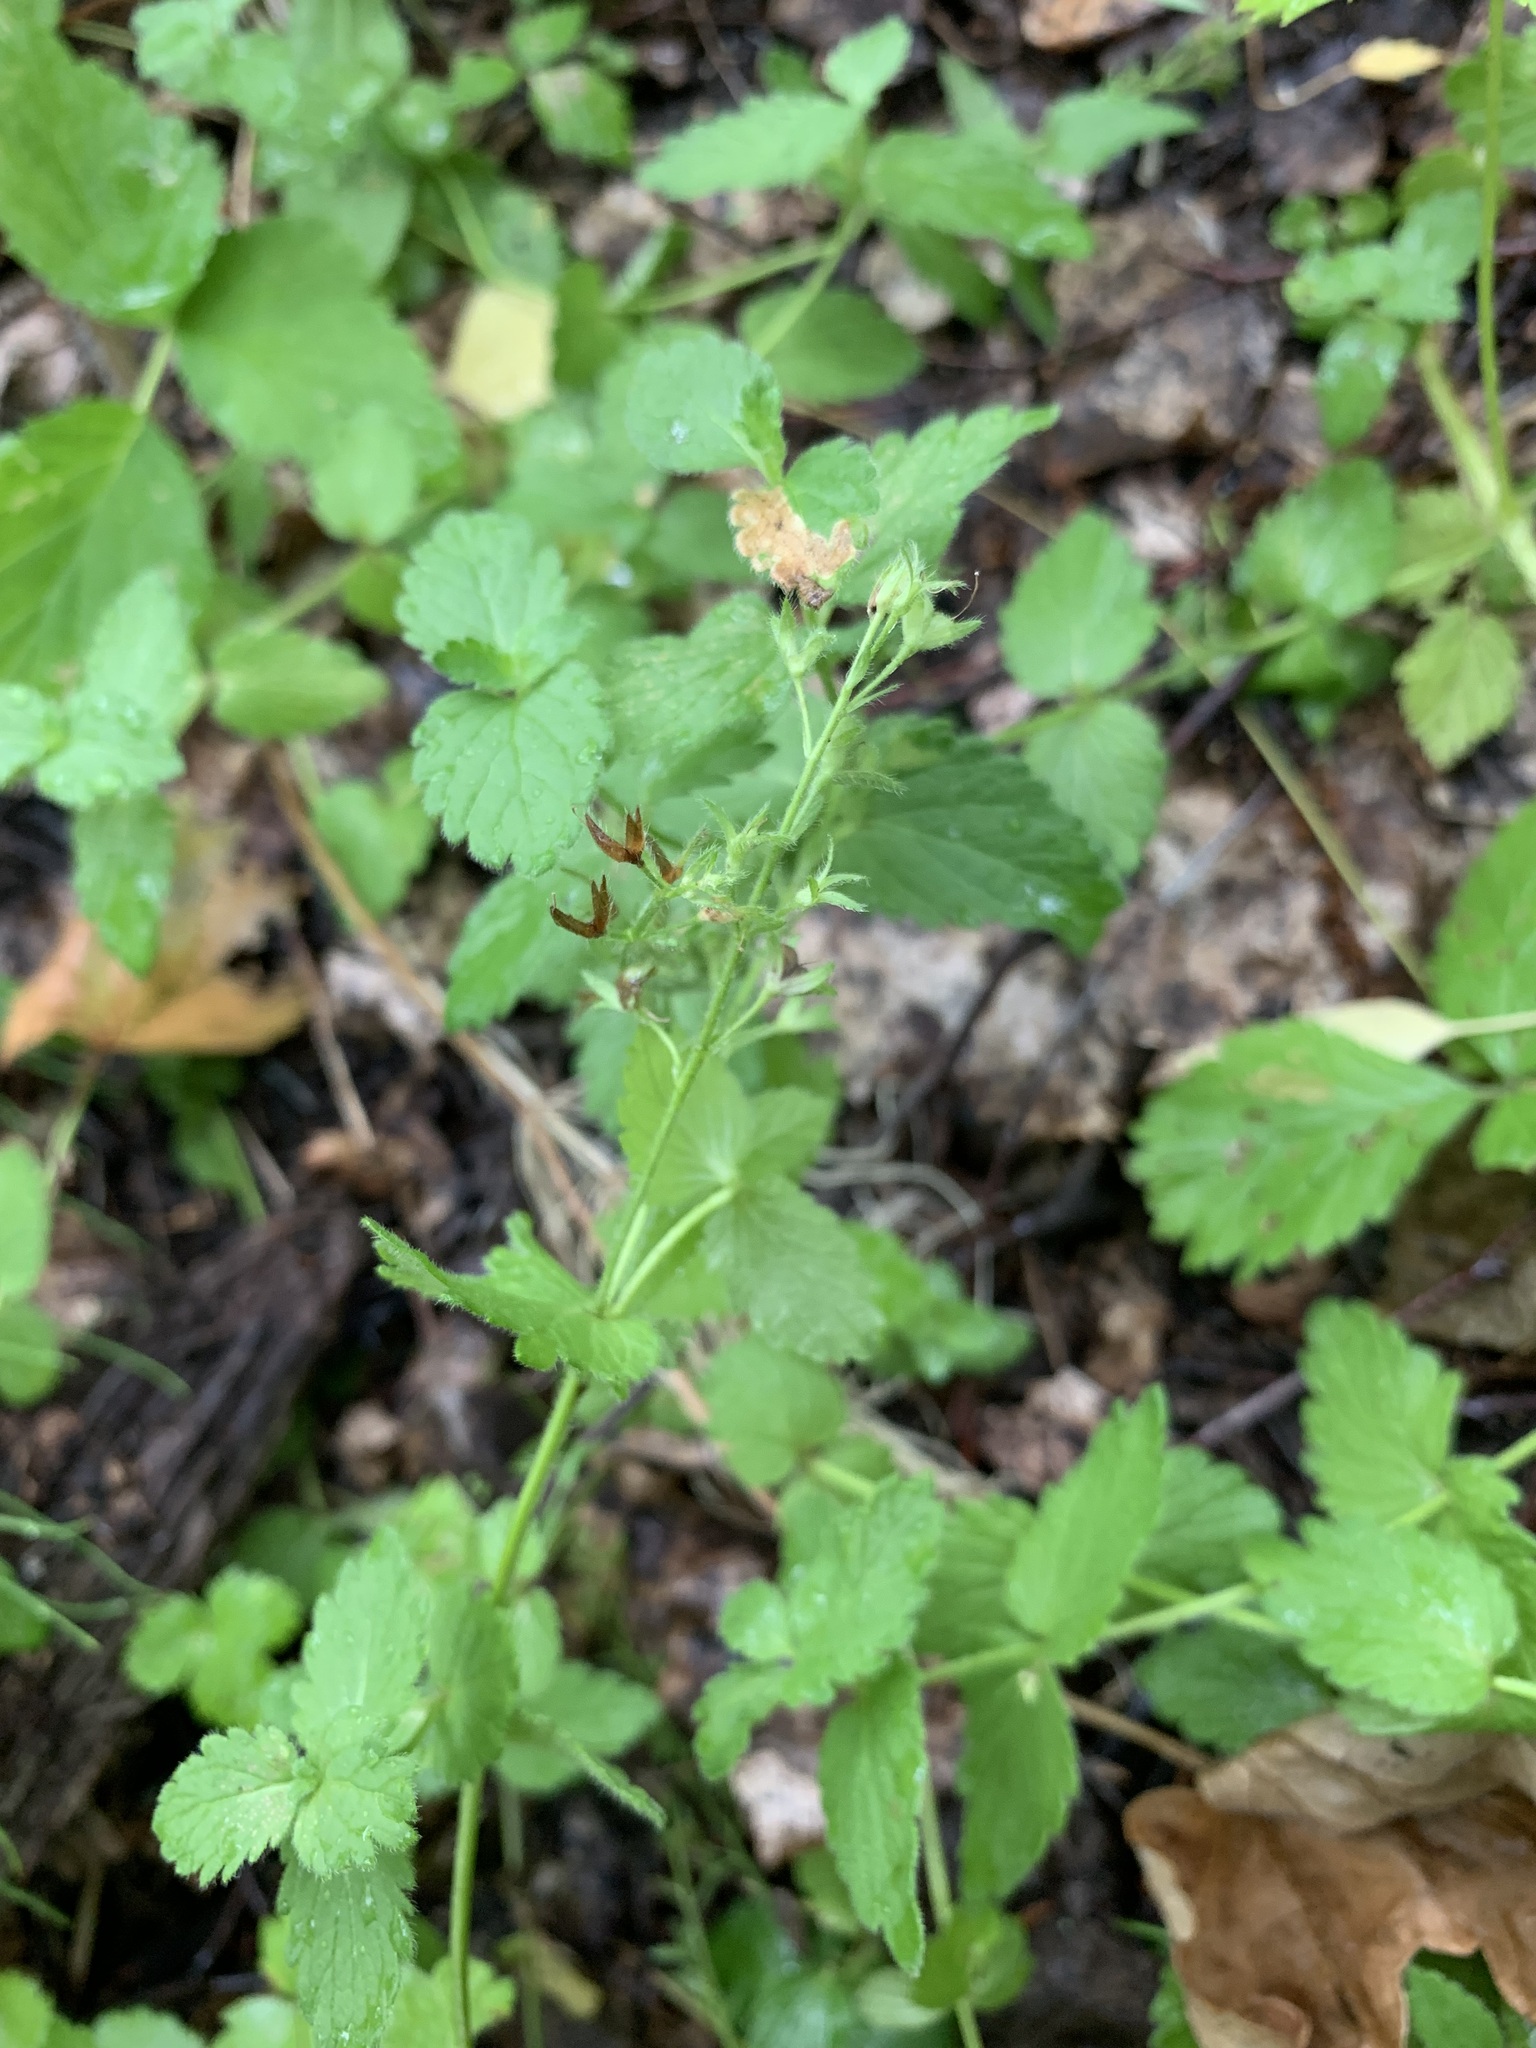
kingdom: Plantae
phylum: Tracheophyta
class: Magnoliopsida
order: Lamiales
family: Plantaginaceae
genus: Veronica
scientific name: Veronica chamaedrys
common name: Germander speedwell
